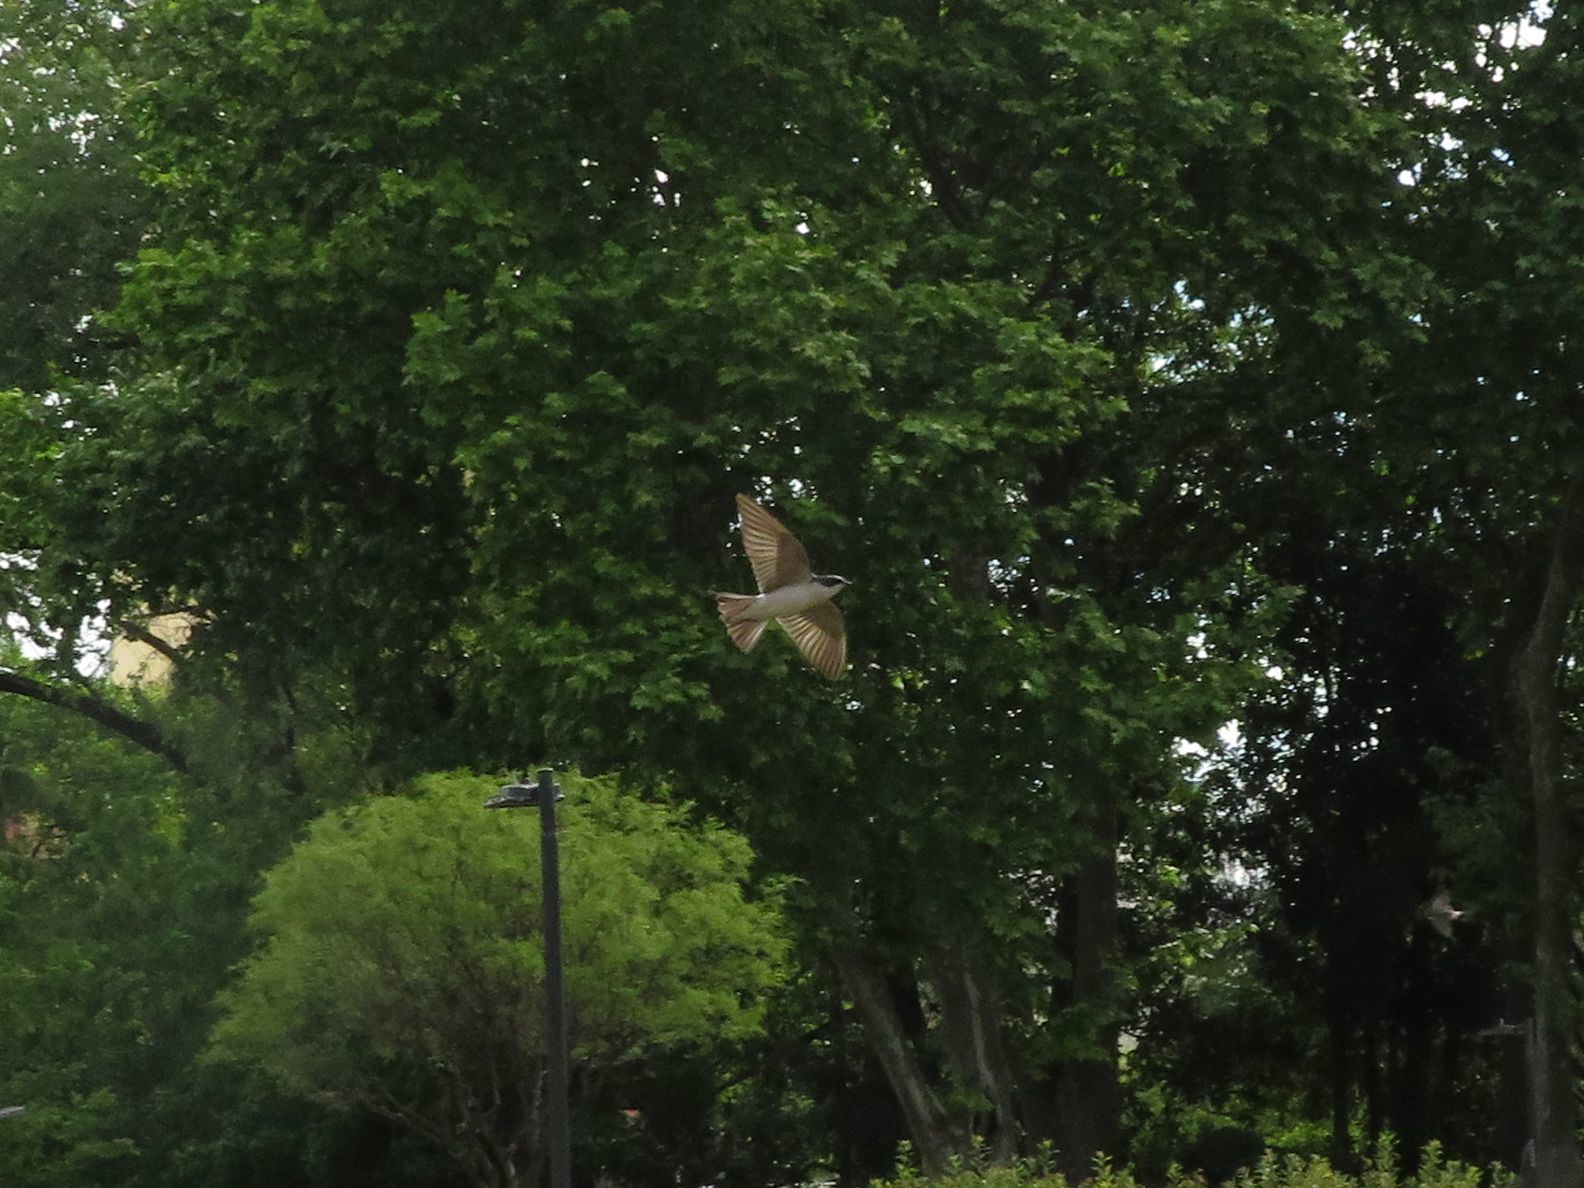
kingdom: Animalia
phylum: Chordata
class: Aves
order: Passeriformes
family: Hirundinidae
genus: Tachycineta
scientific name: Tachycineta leucorrhoa
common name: White-rumped swallow
